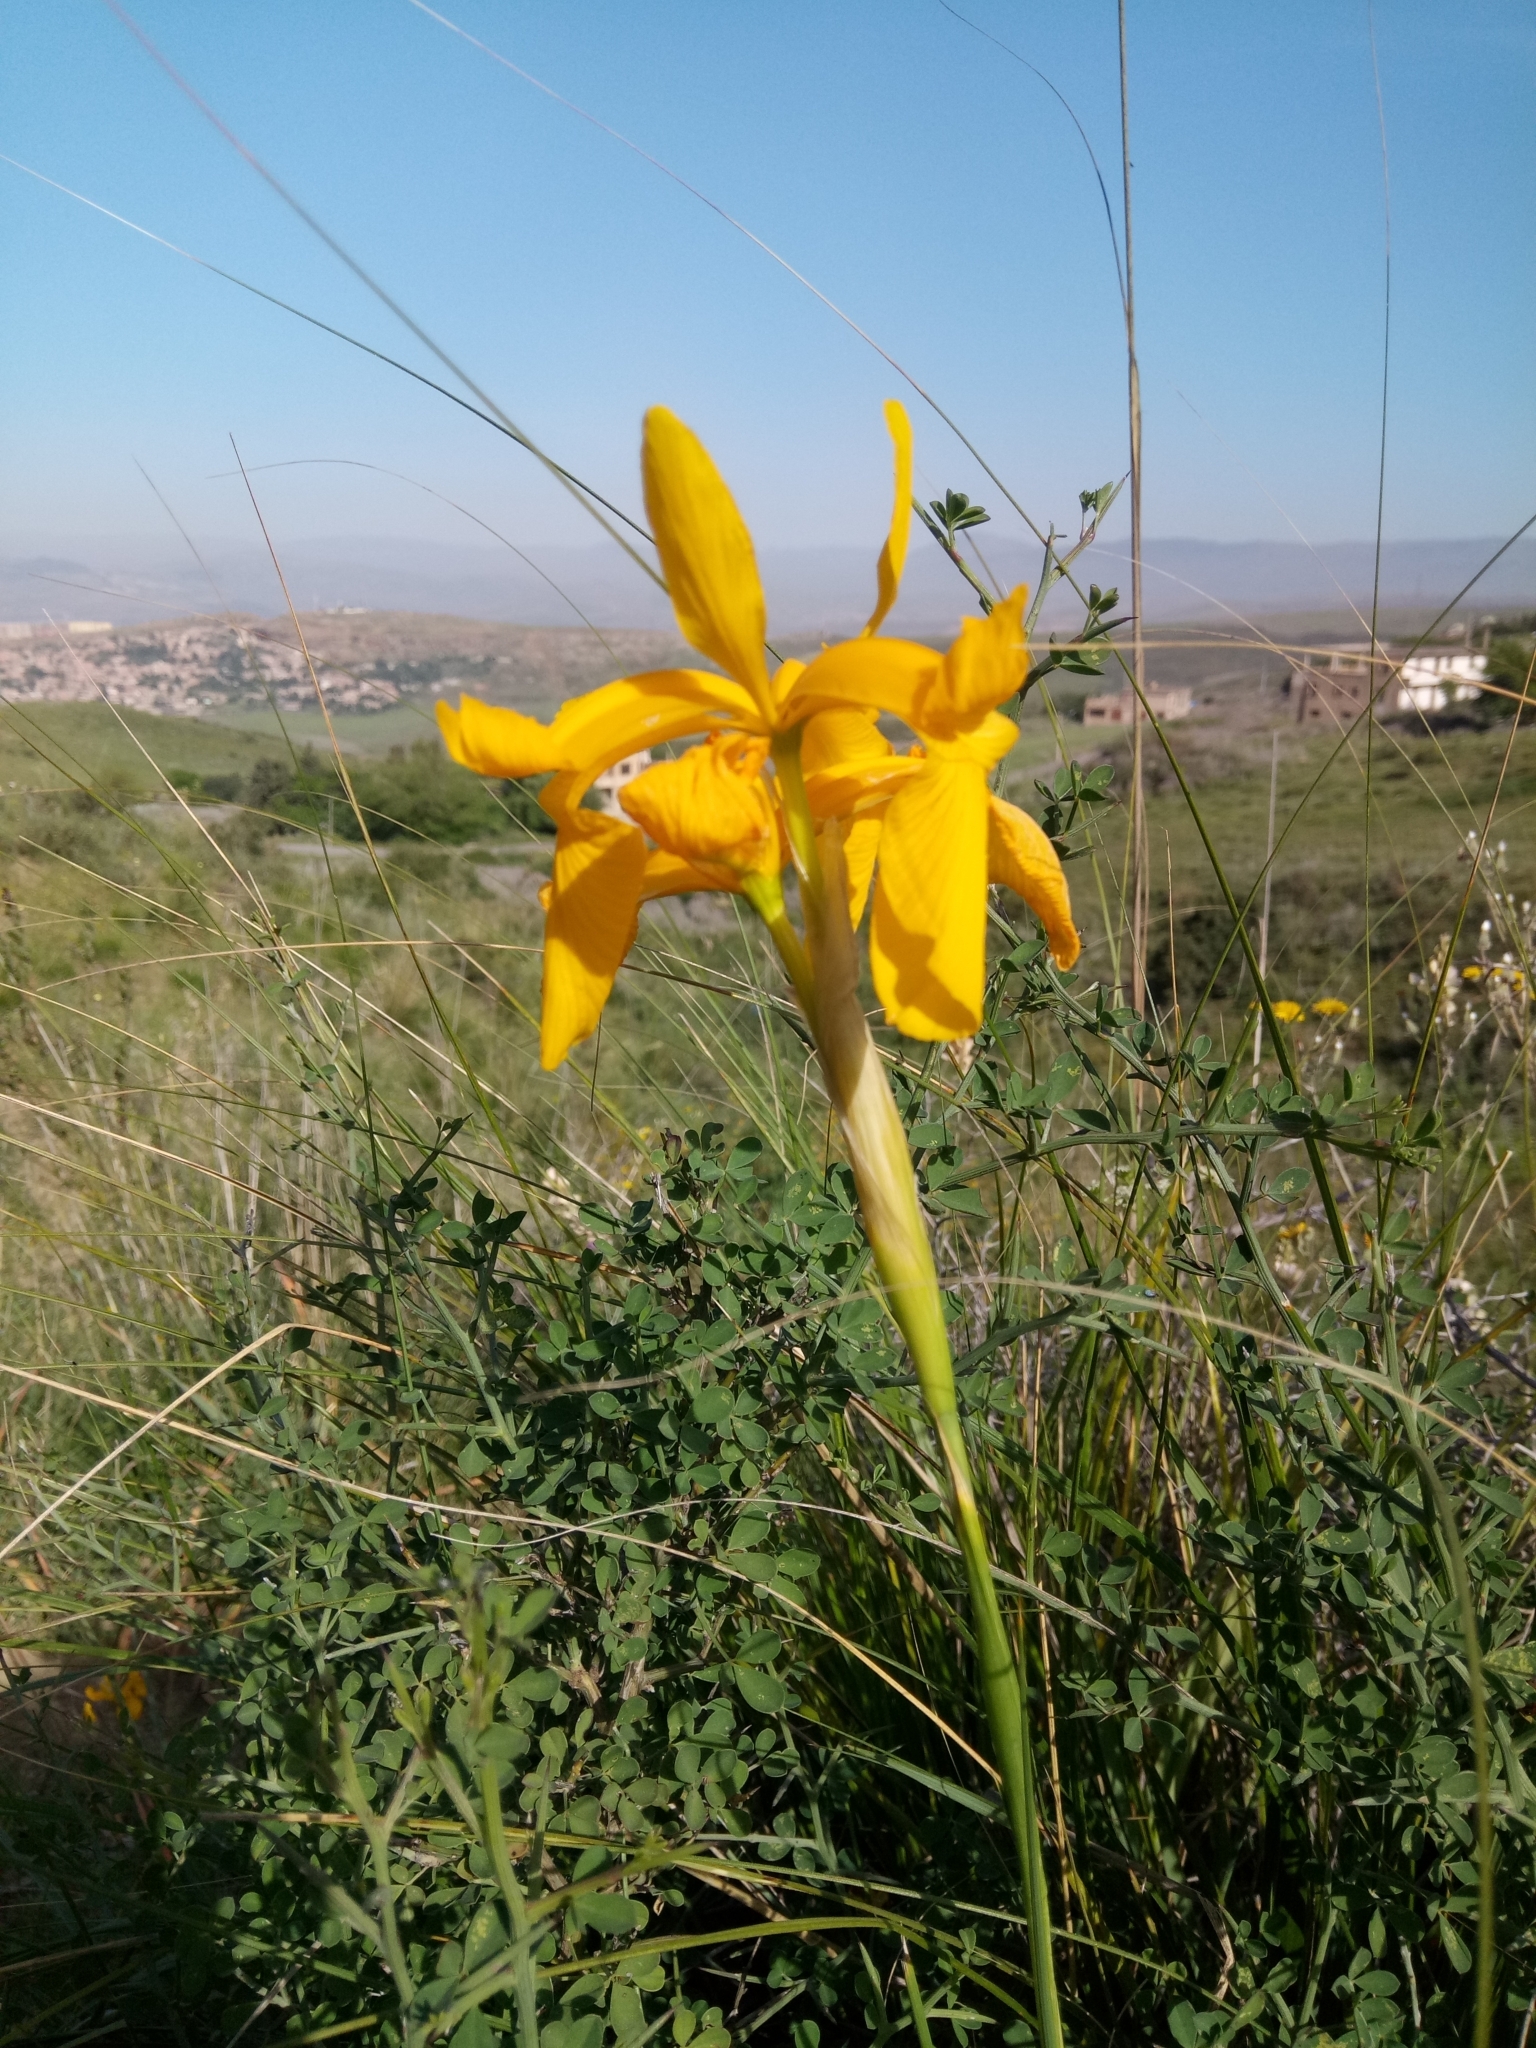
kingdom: Plantae
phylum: Tracheophyta
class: Liliopsida
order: Asparagales
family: Iridaceae
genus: Iris
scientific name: Iris juncea
